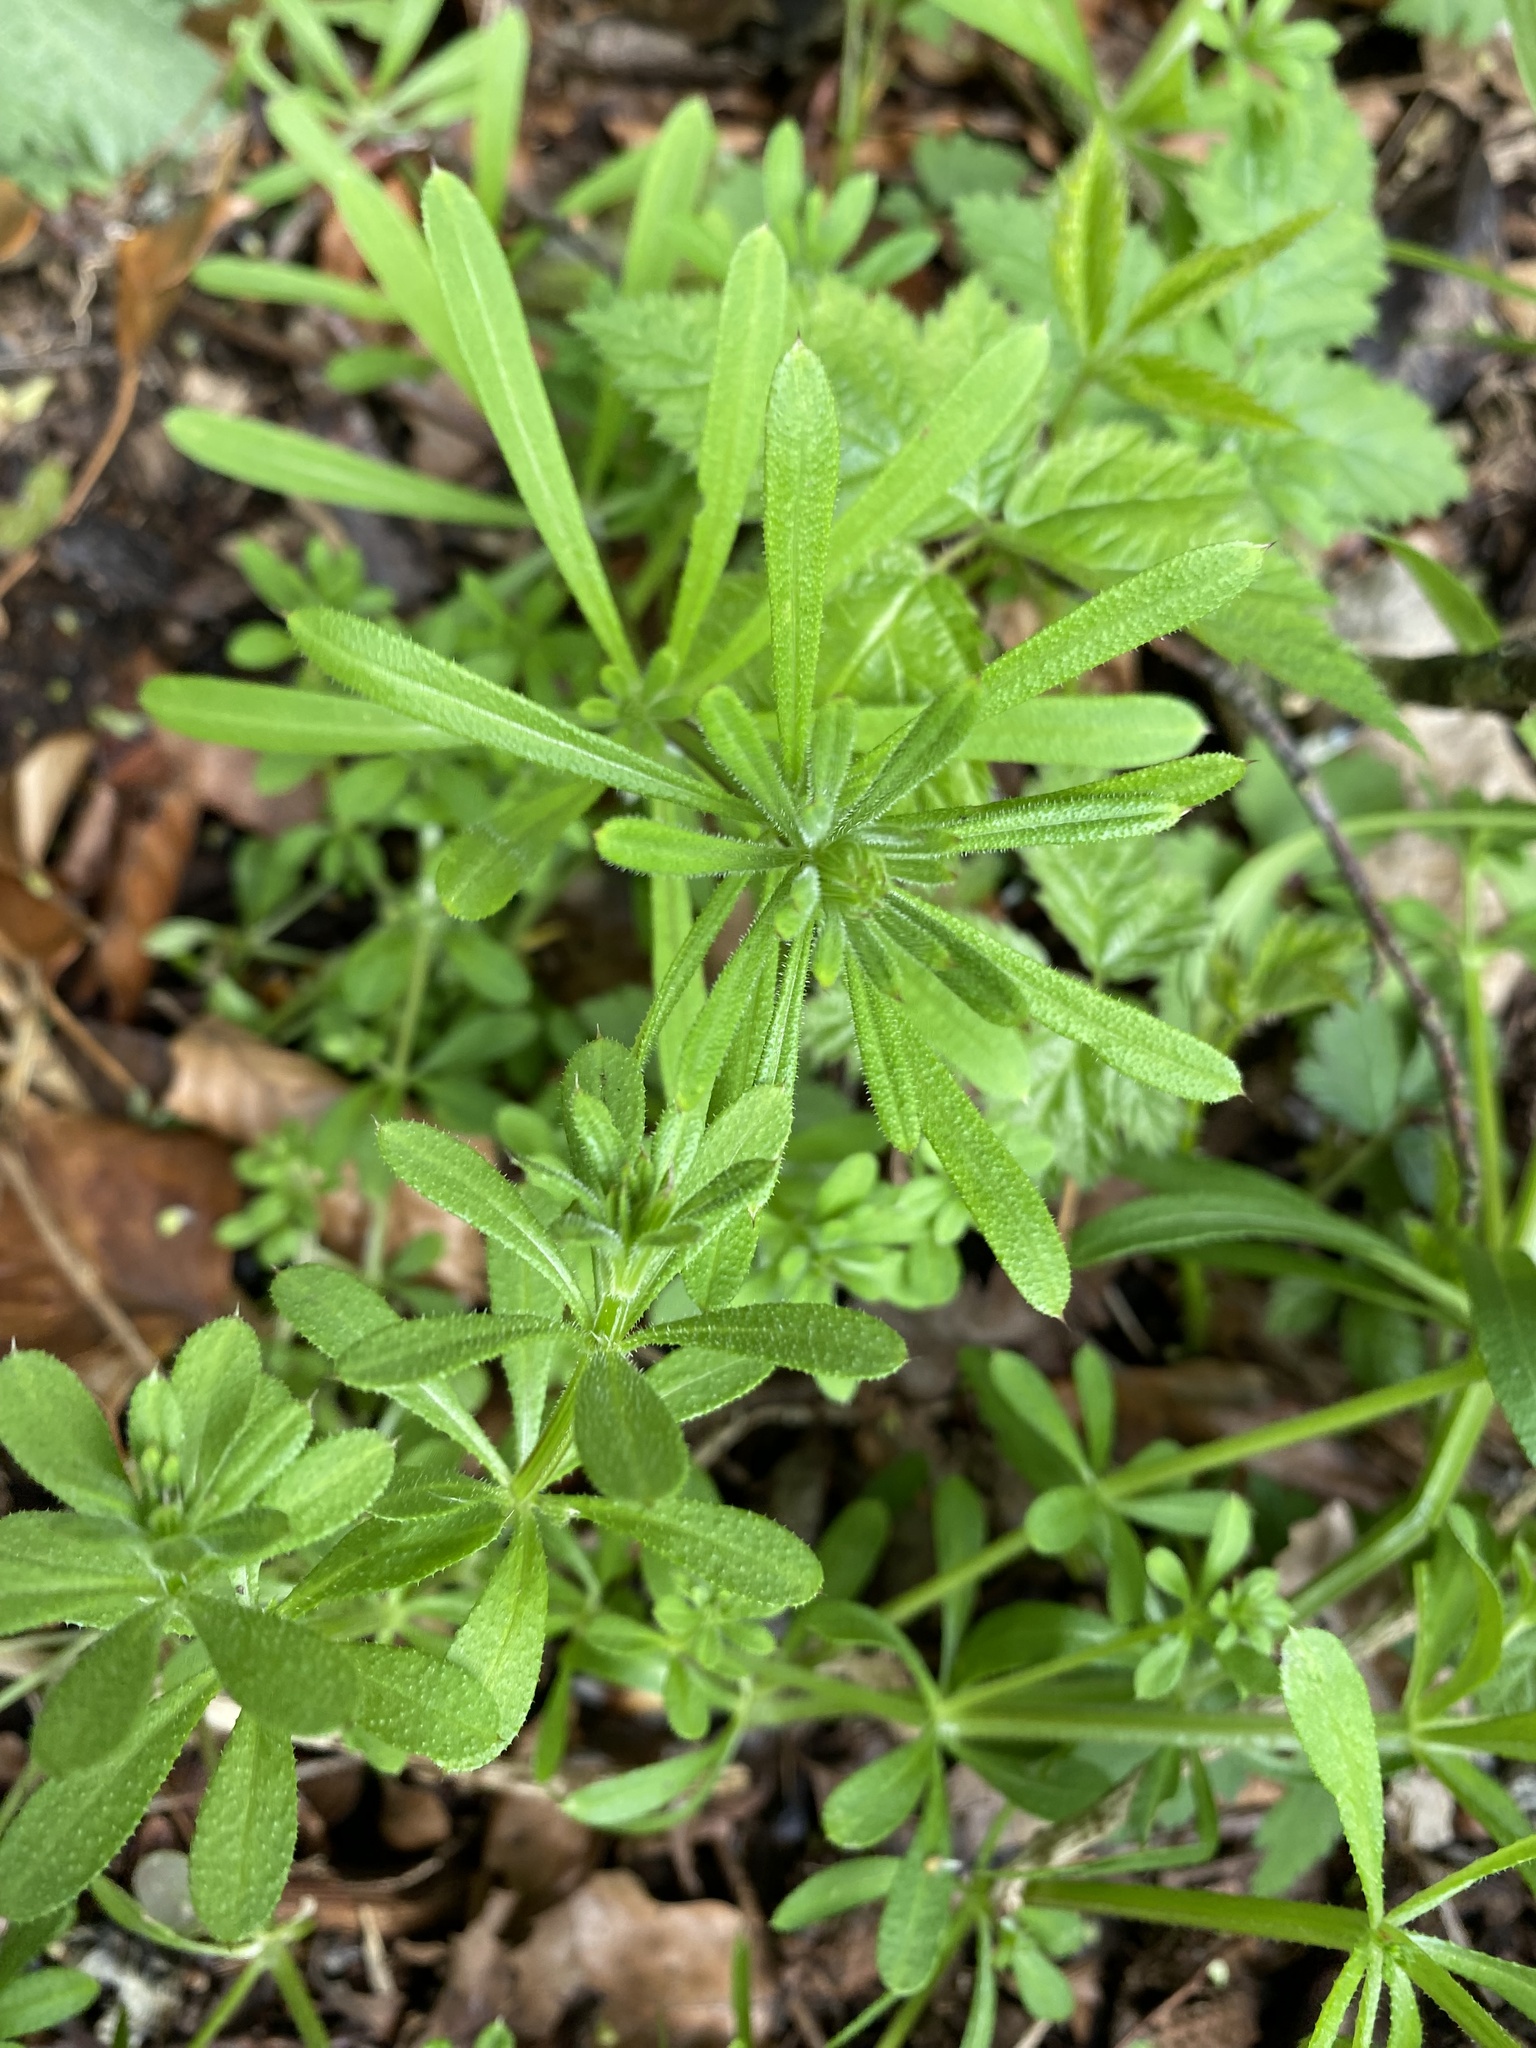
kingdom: Plantae
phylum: Tracheophyta
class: Magnoliopsida
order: Gentianales
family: Rubiaceae
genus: Galium
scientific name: Galium aparine
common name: Cleavers
